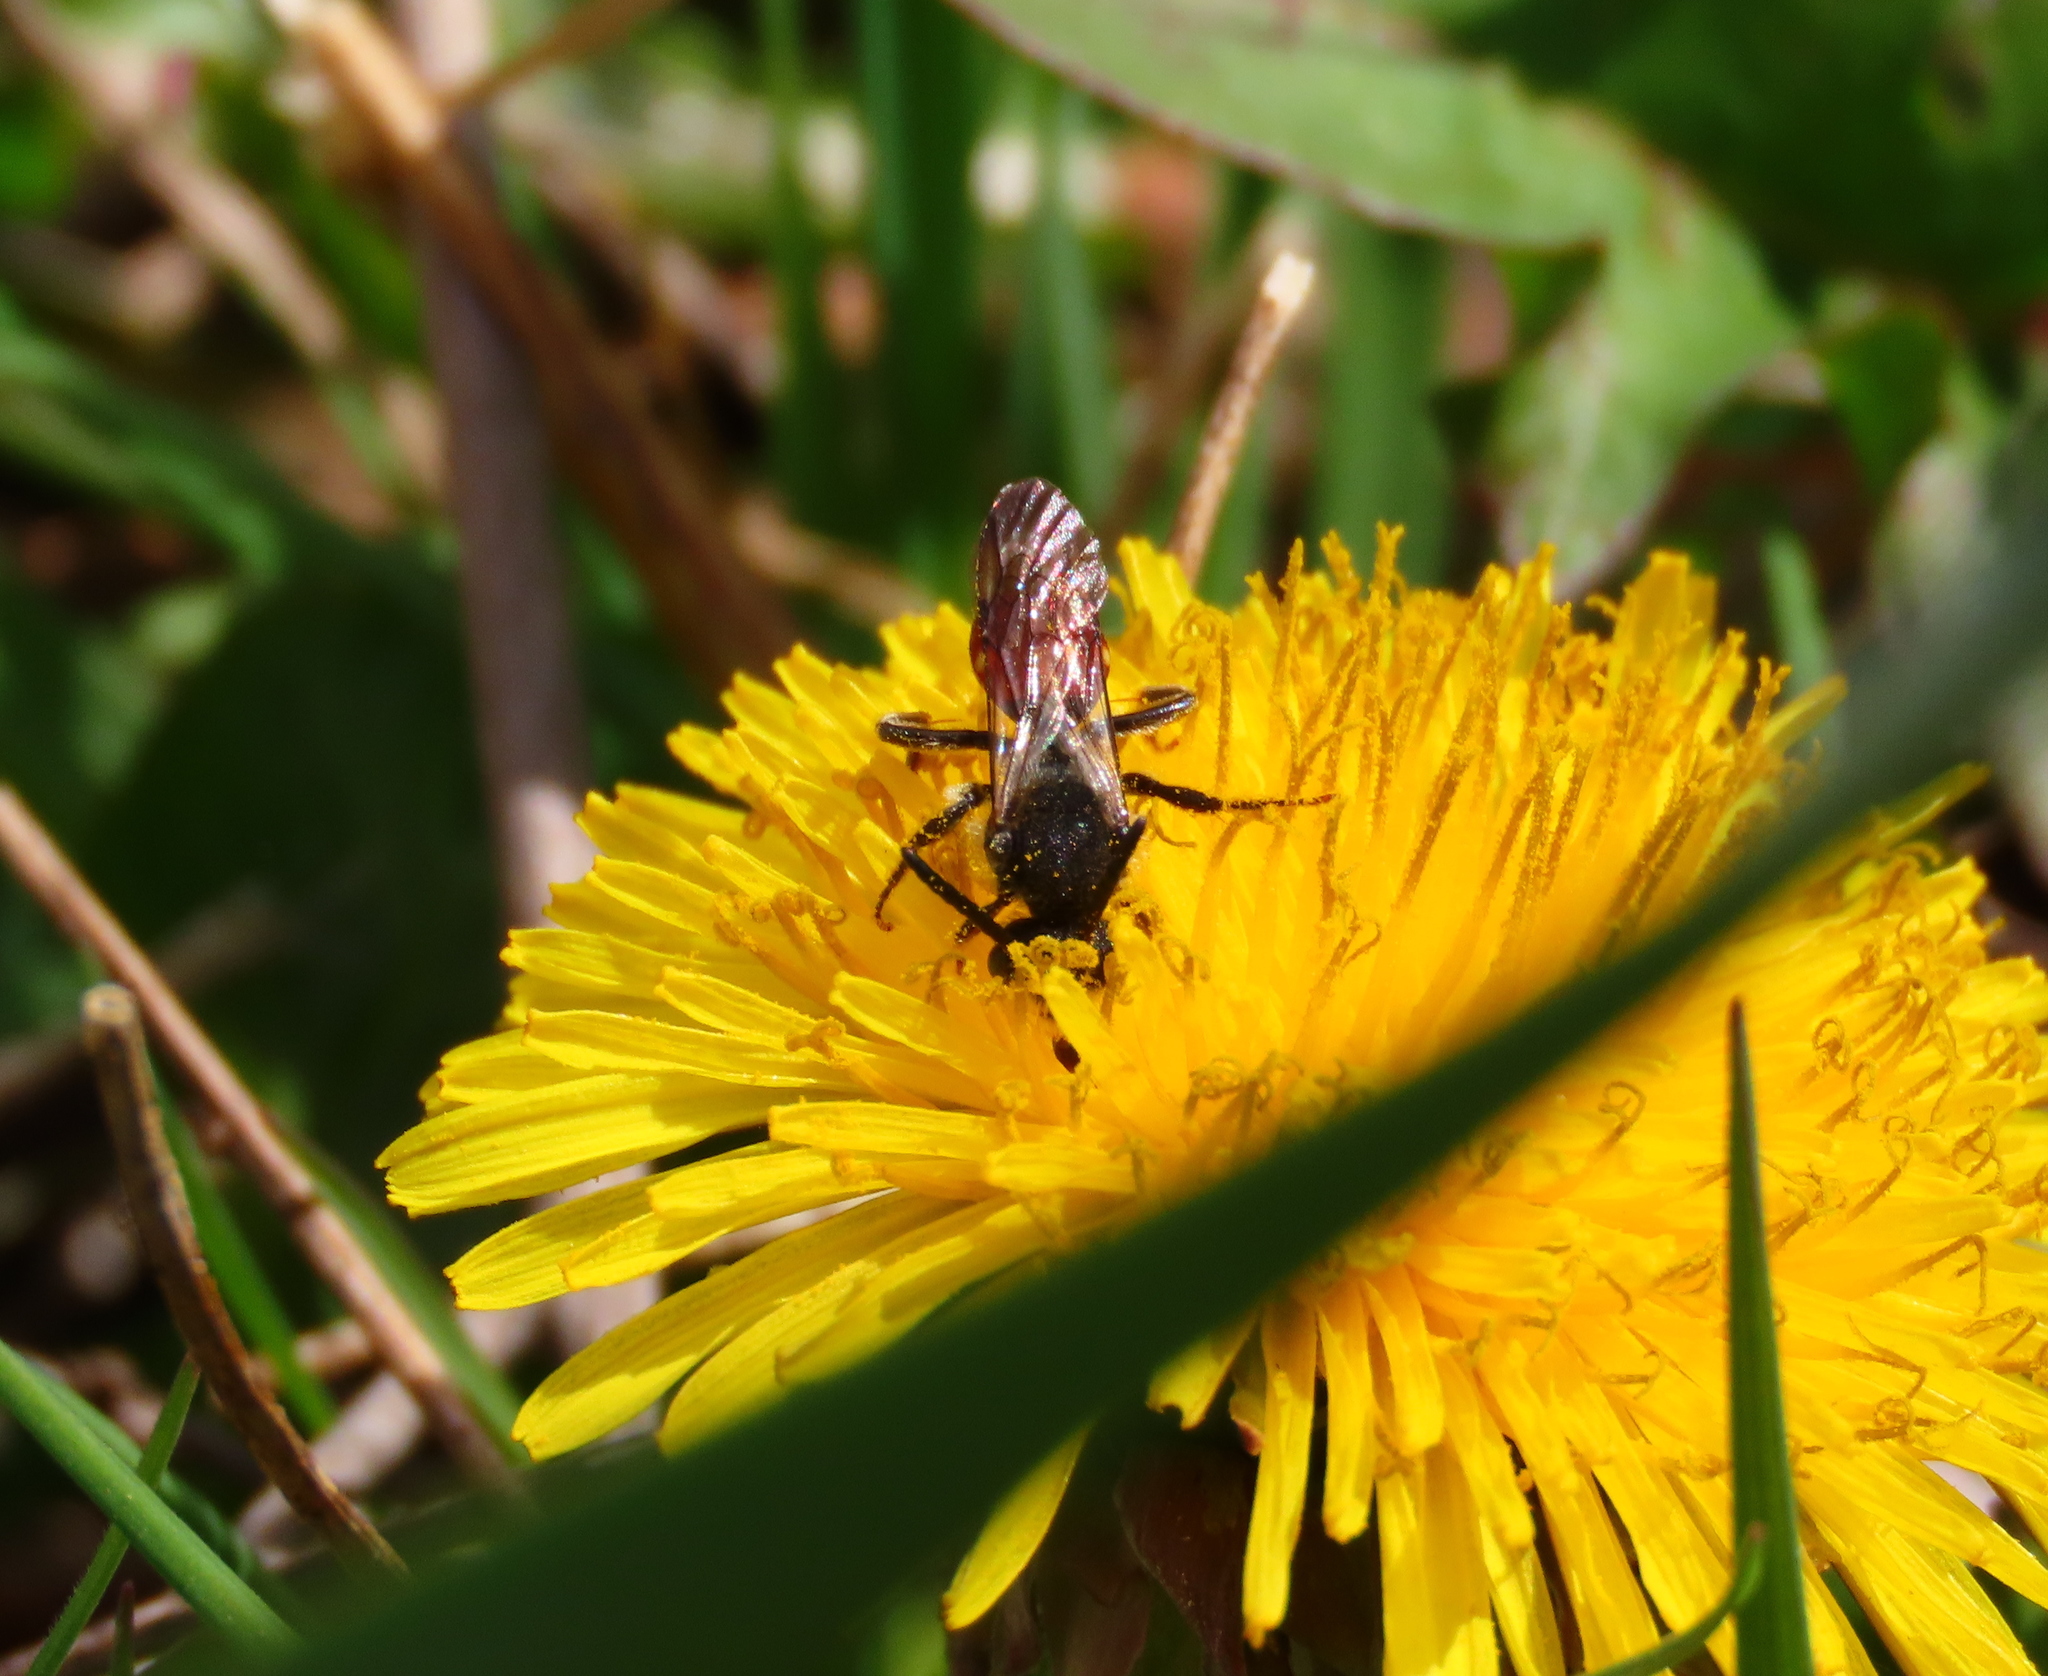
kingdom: Animalia
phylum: Arthropoda
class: Insecta
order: Hymenoptera
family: Apidae
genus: Nomada
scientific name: Nomada
